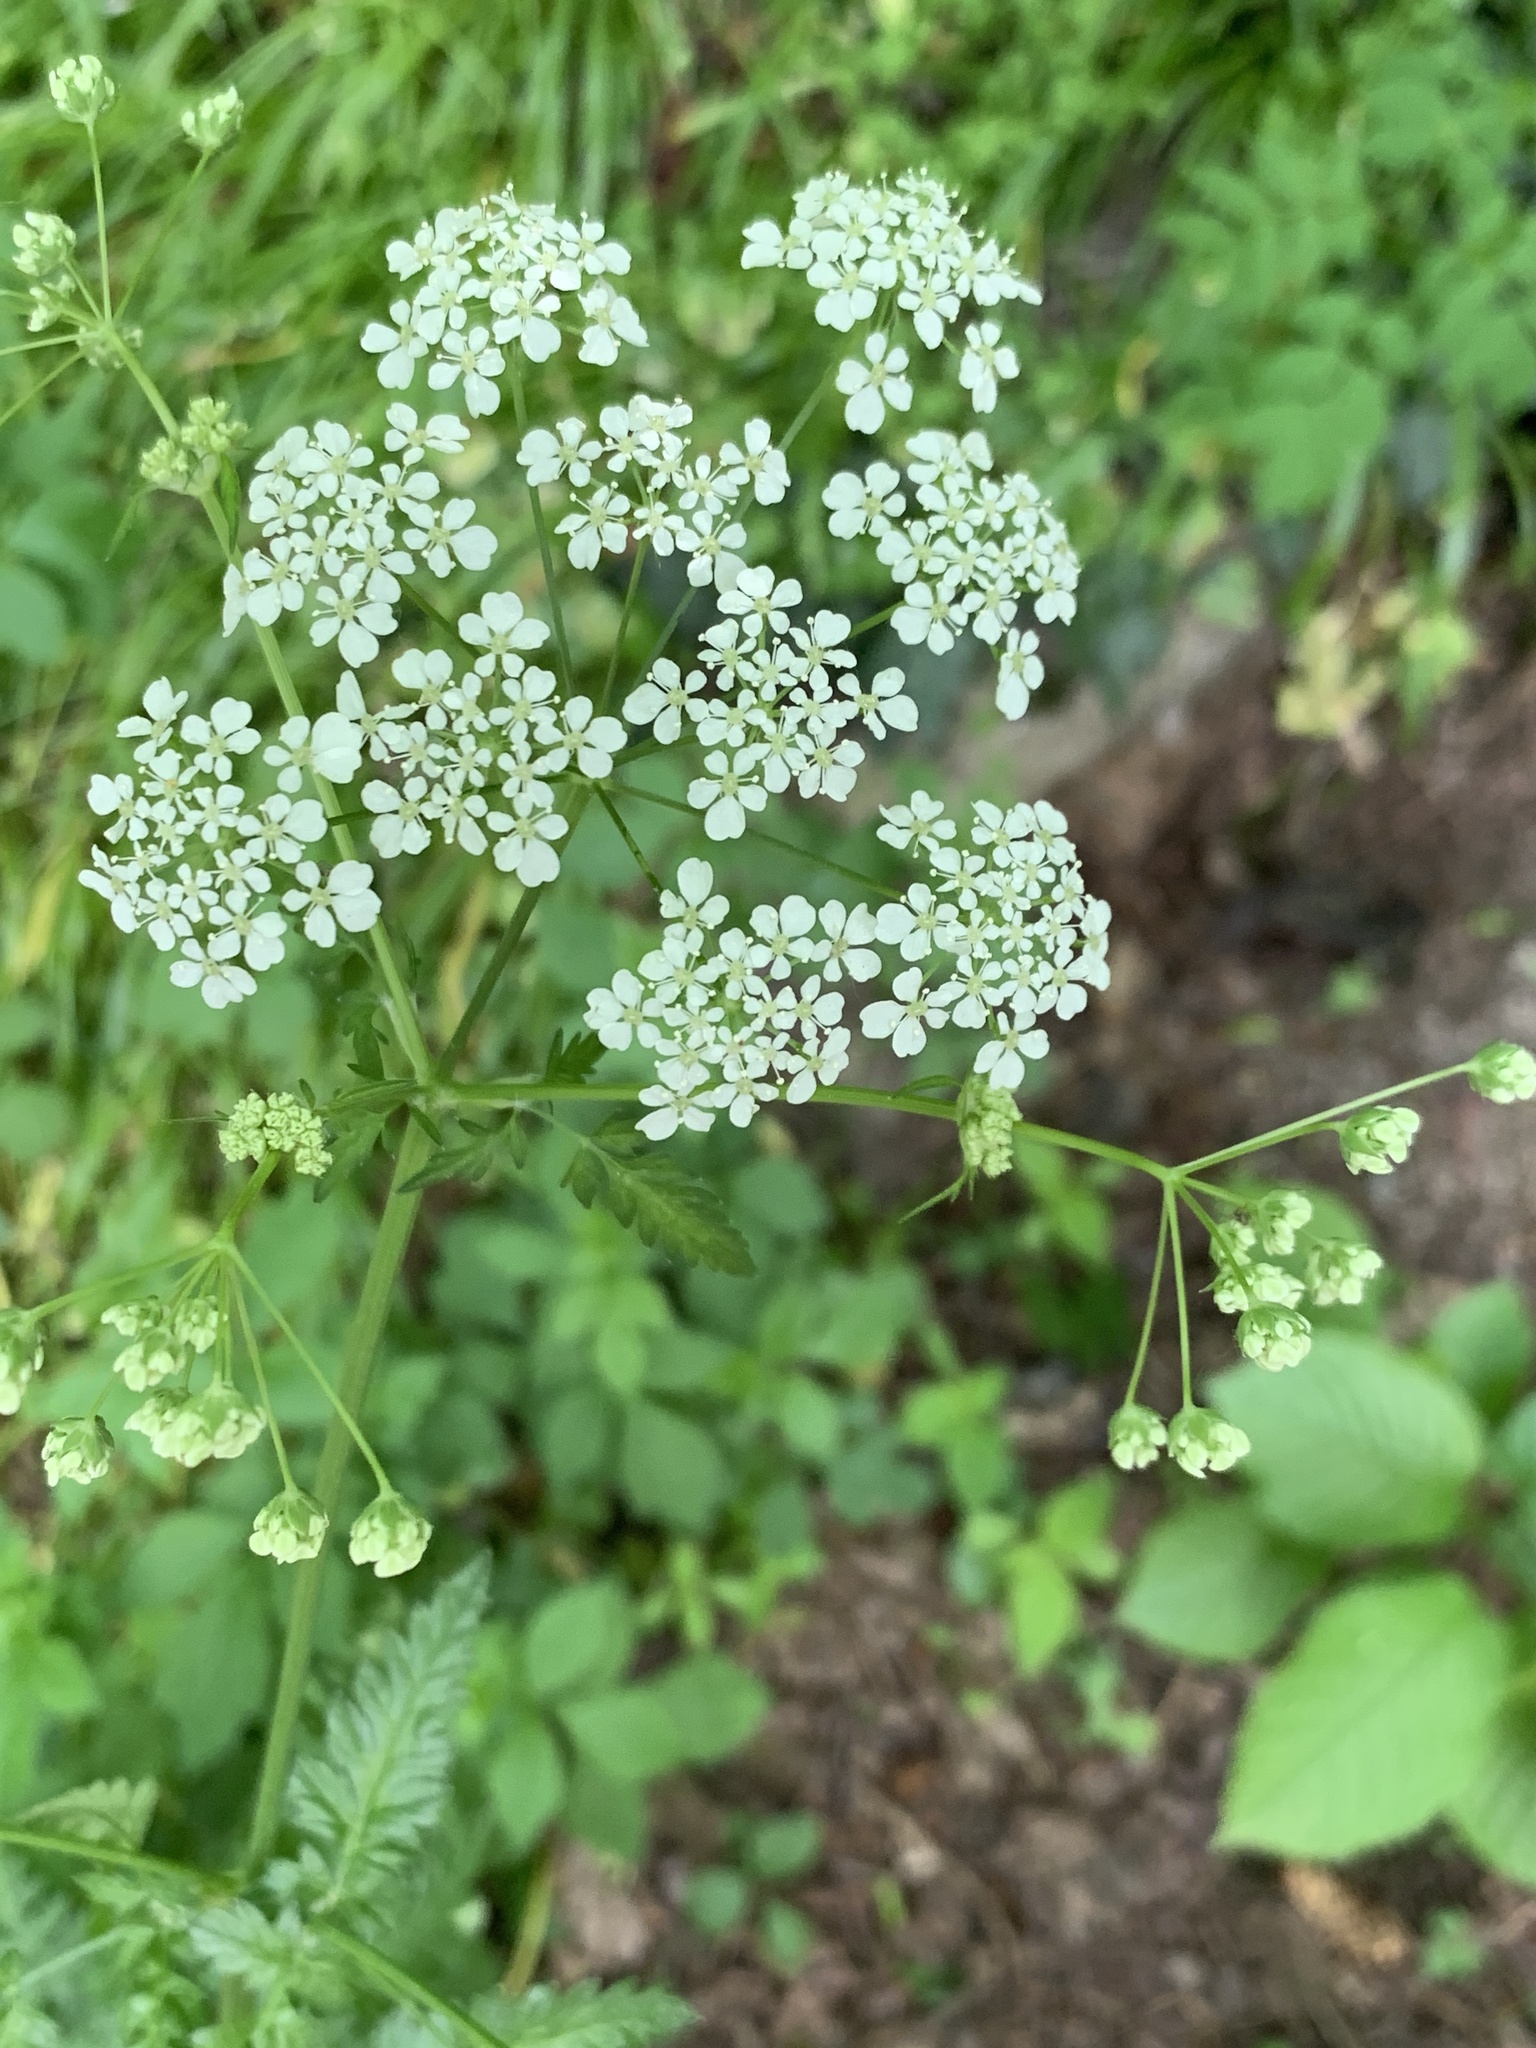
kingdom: Plantae
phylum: Tracheophyta
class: Magnoliopsida
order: Apiales
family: Apiaceae
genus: Anthriscus
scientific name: Anthriscus sylvestris
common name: Cow parsley
